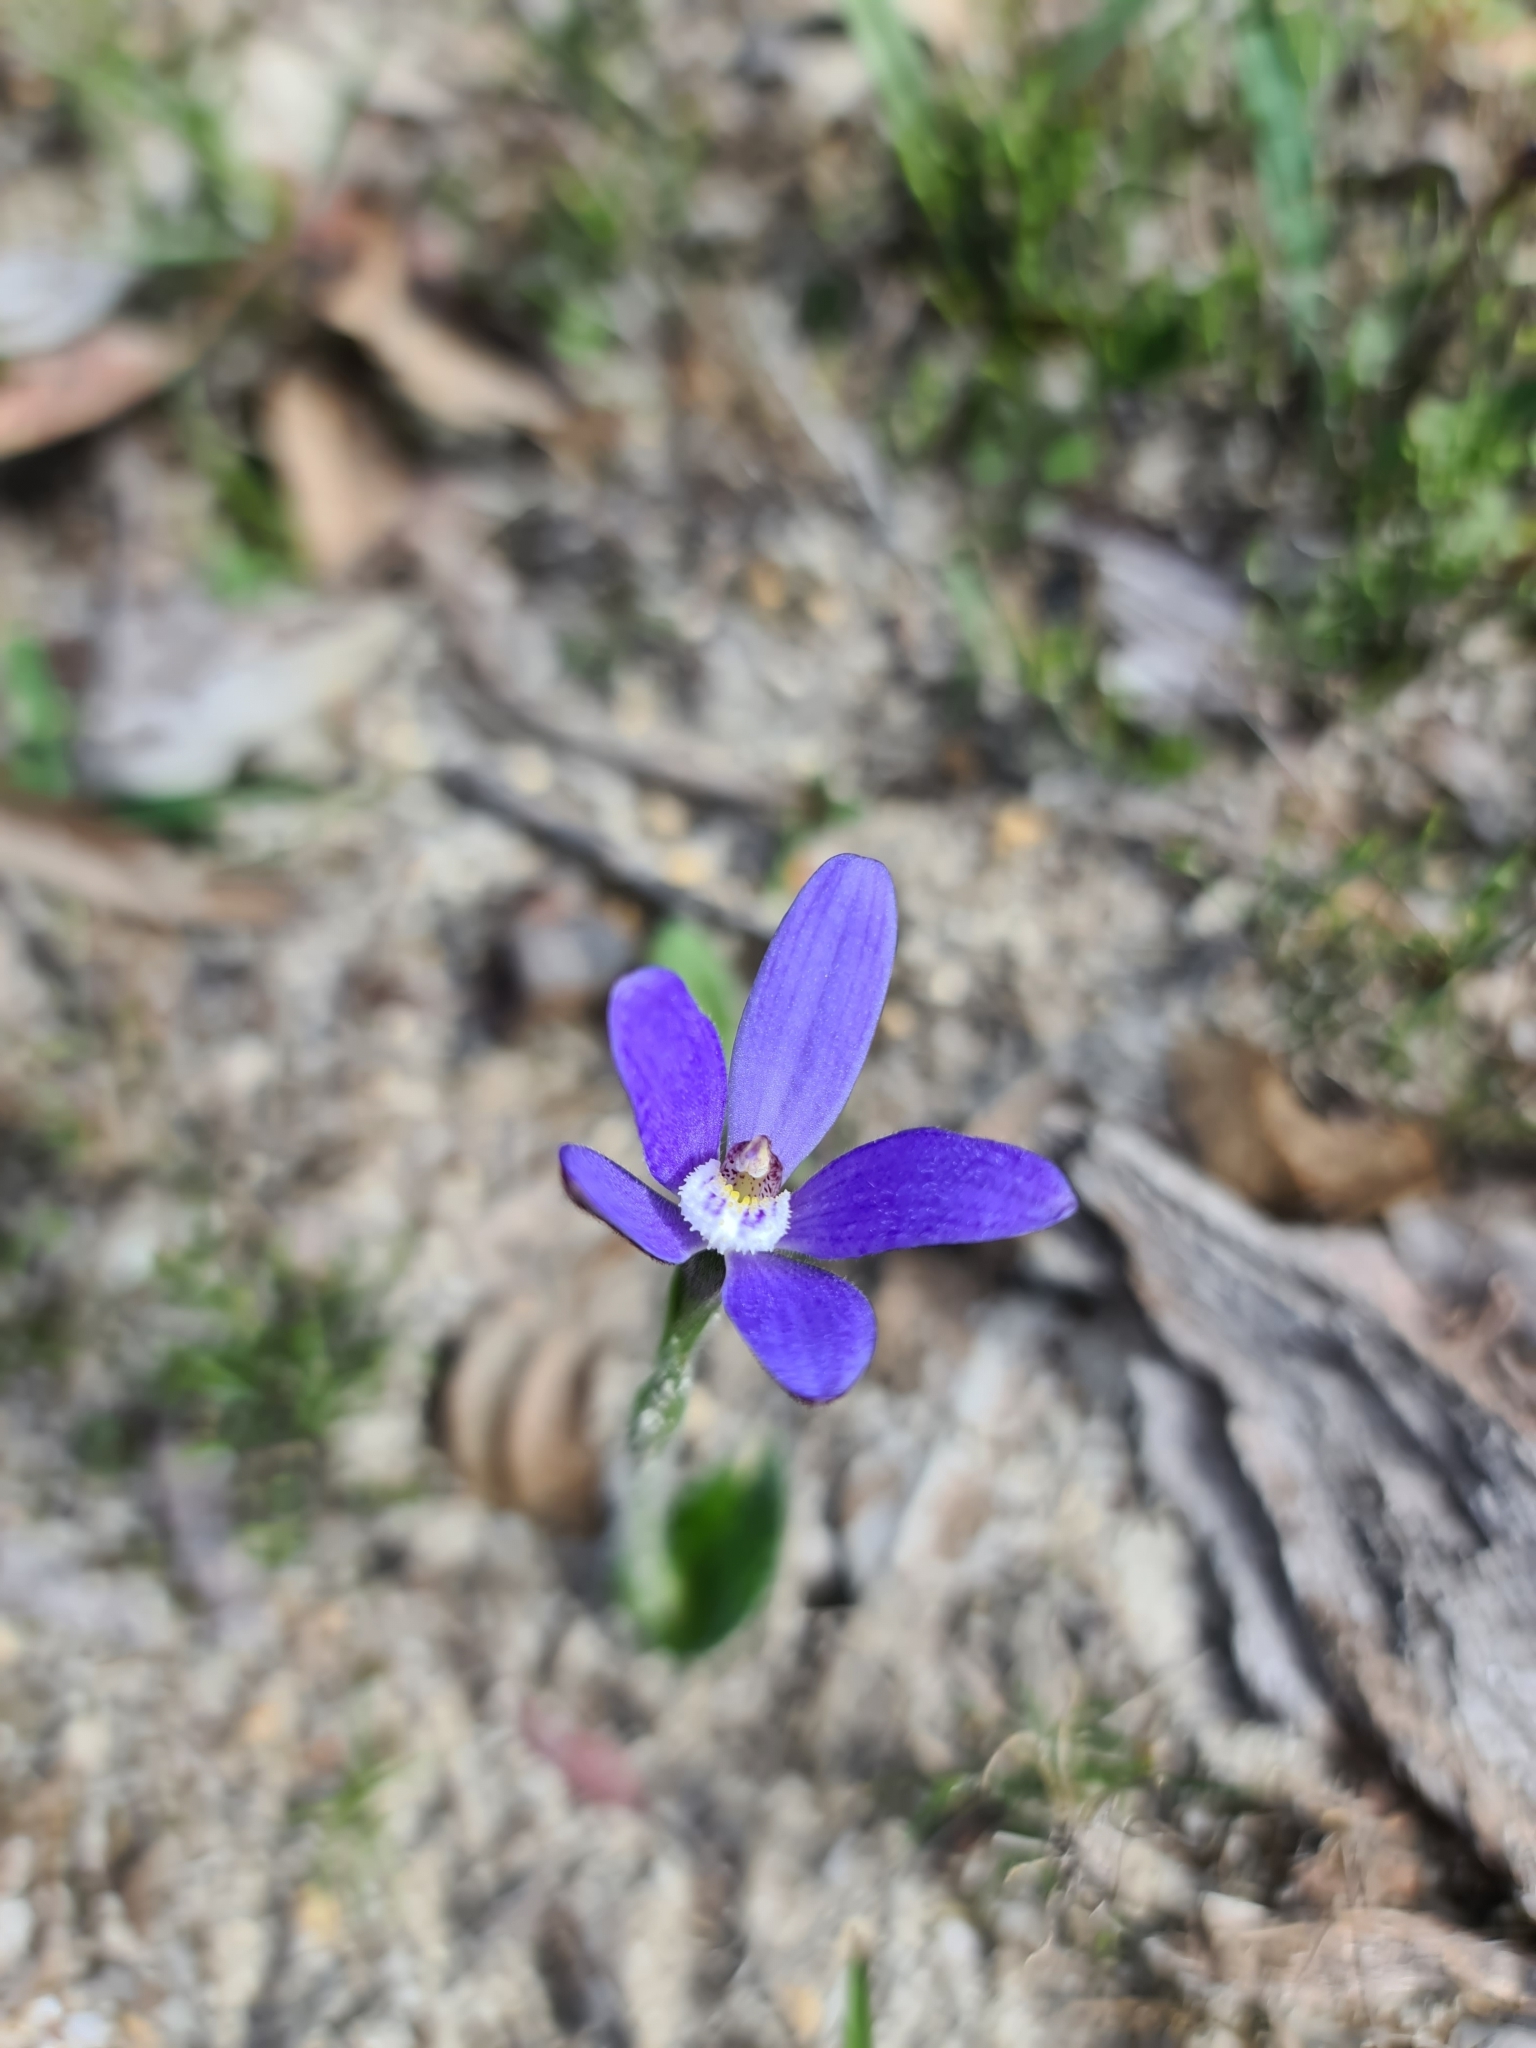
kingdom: Plantae
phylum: Tracheophyta
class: Liliopsida
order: Asparagales
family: Orchidaceae
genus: Caladenia
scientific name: Caladenia gemmata
